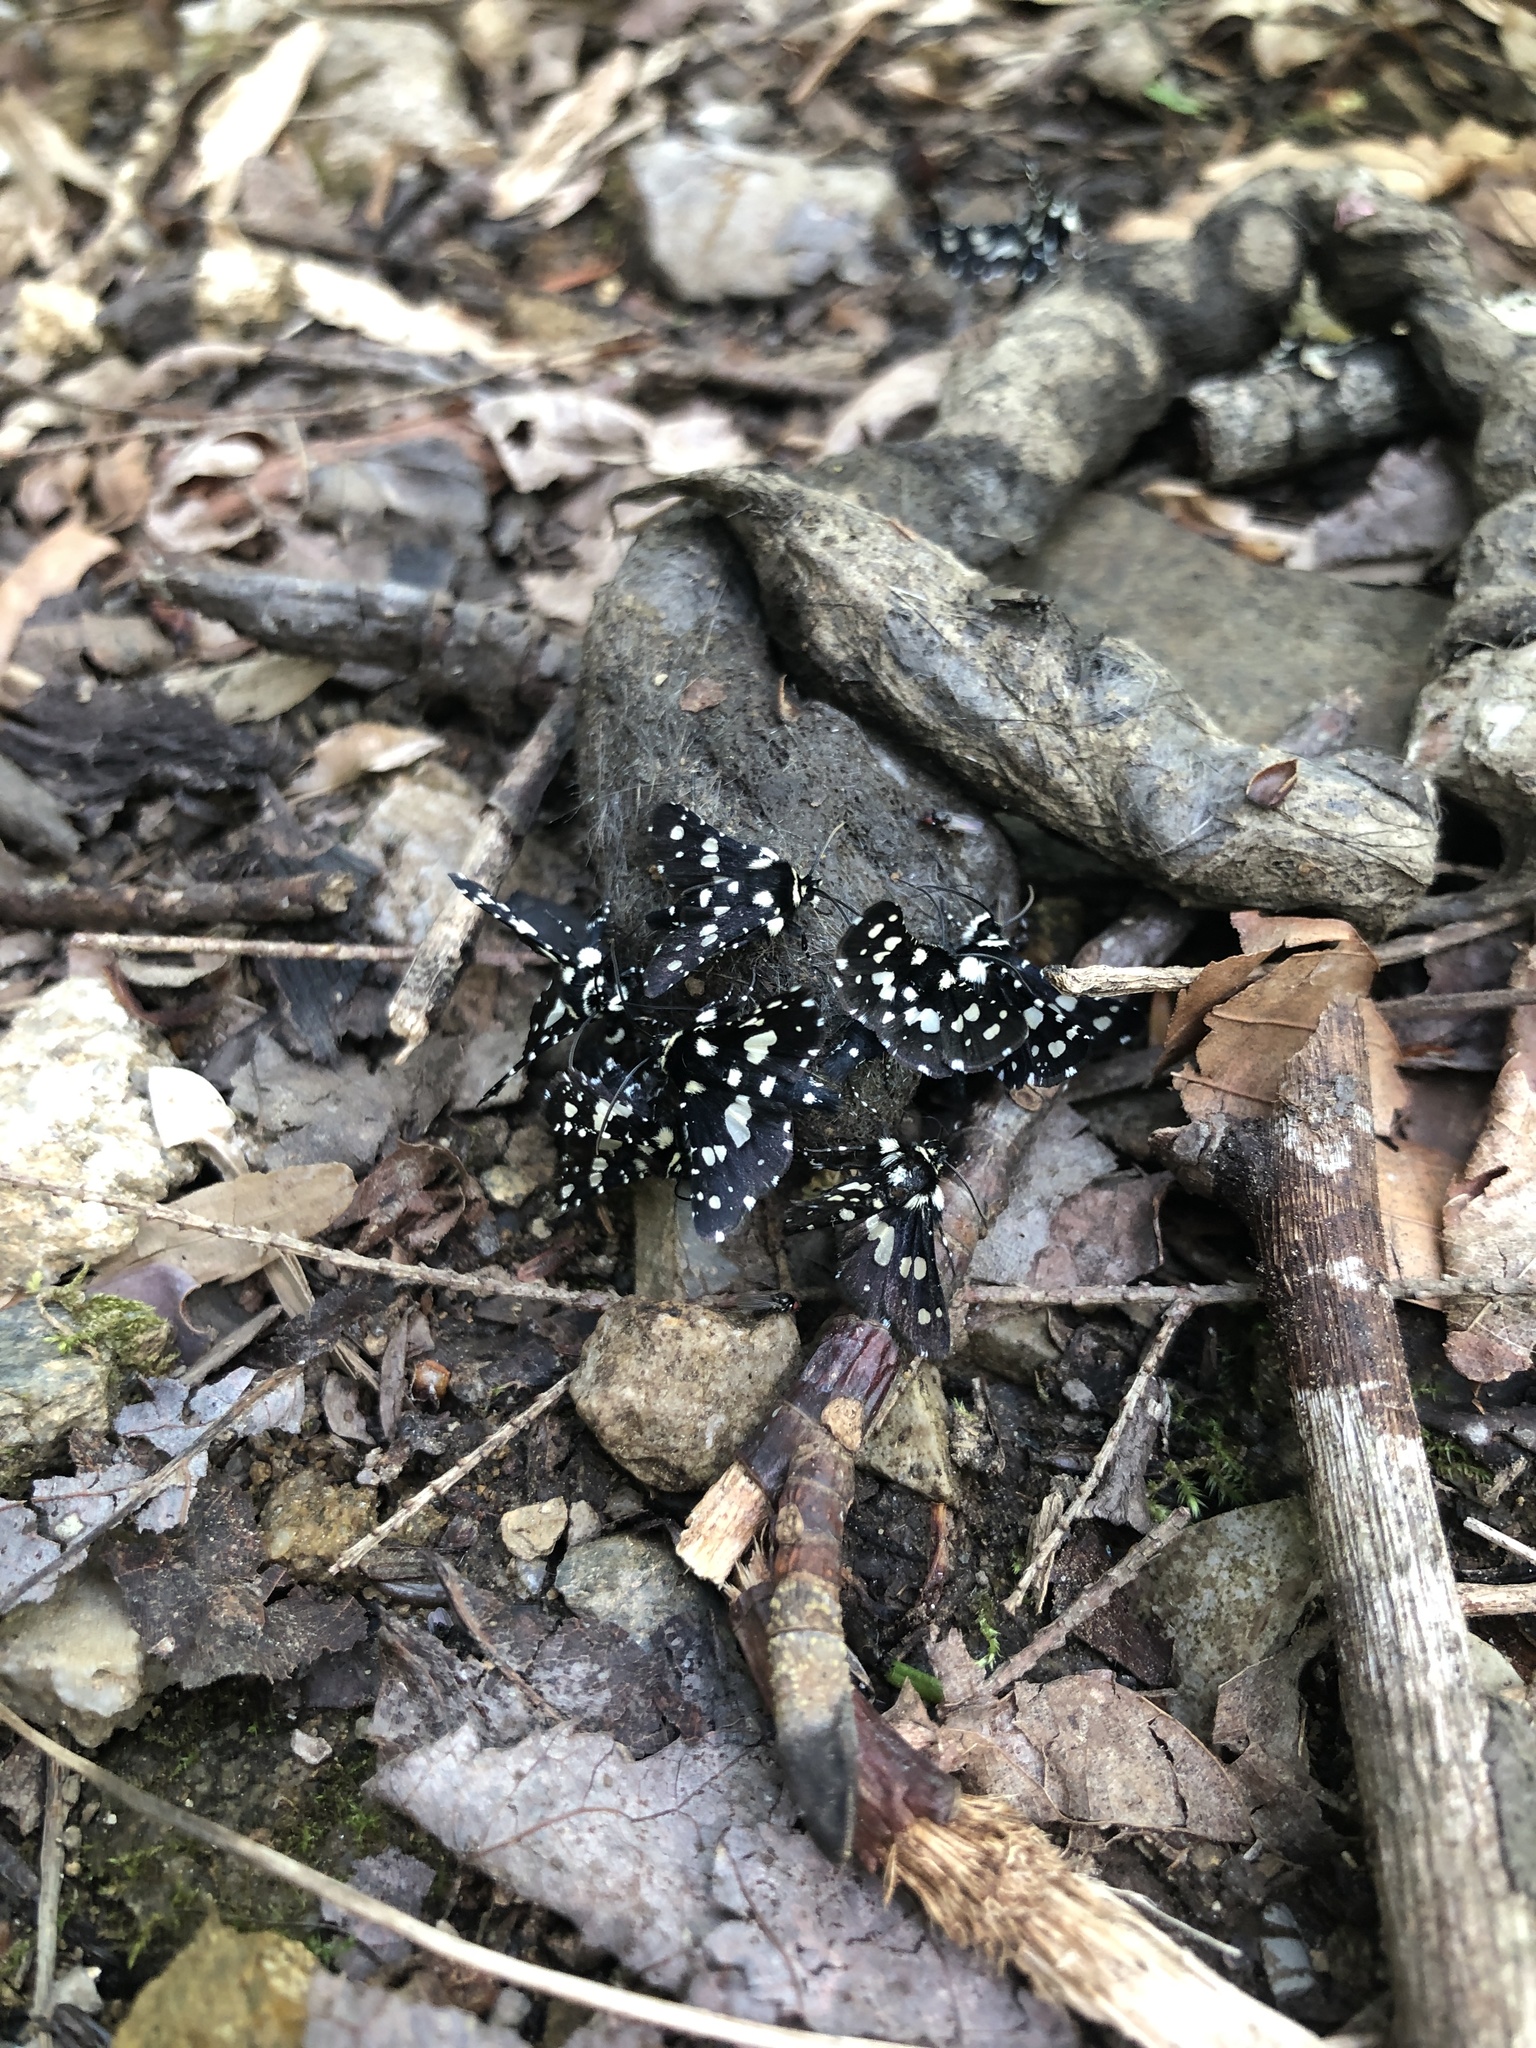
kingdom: Animalia
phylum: Arthropoda
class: Insecta
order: Lepidoptera
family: Thyrididae
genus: Pseudothyris
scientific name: Pseudothyris sepulchralis
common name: Mournful thyris moth
